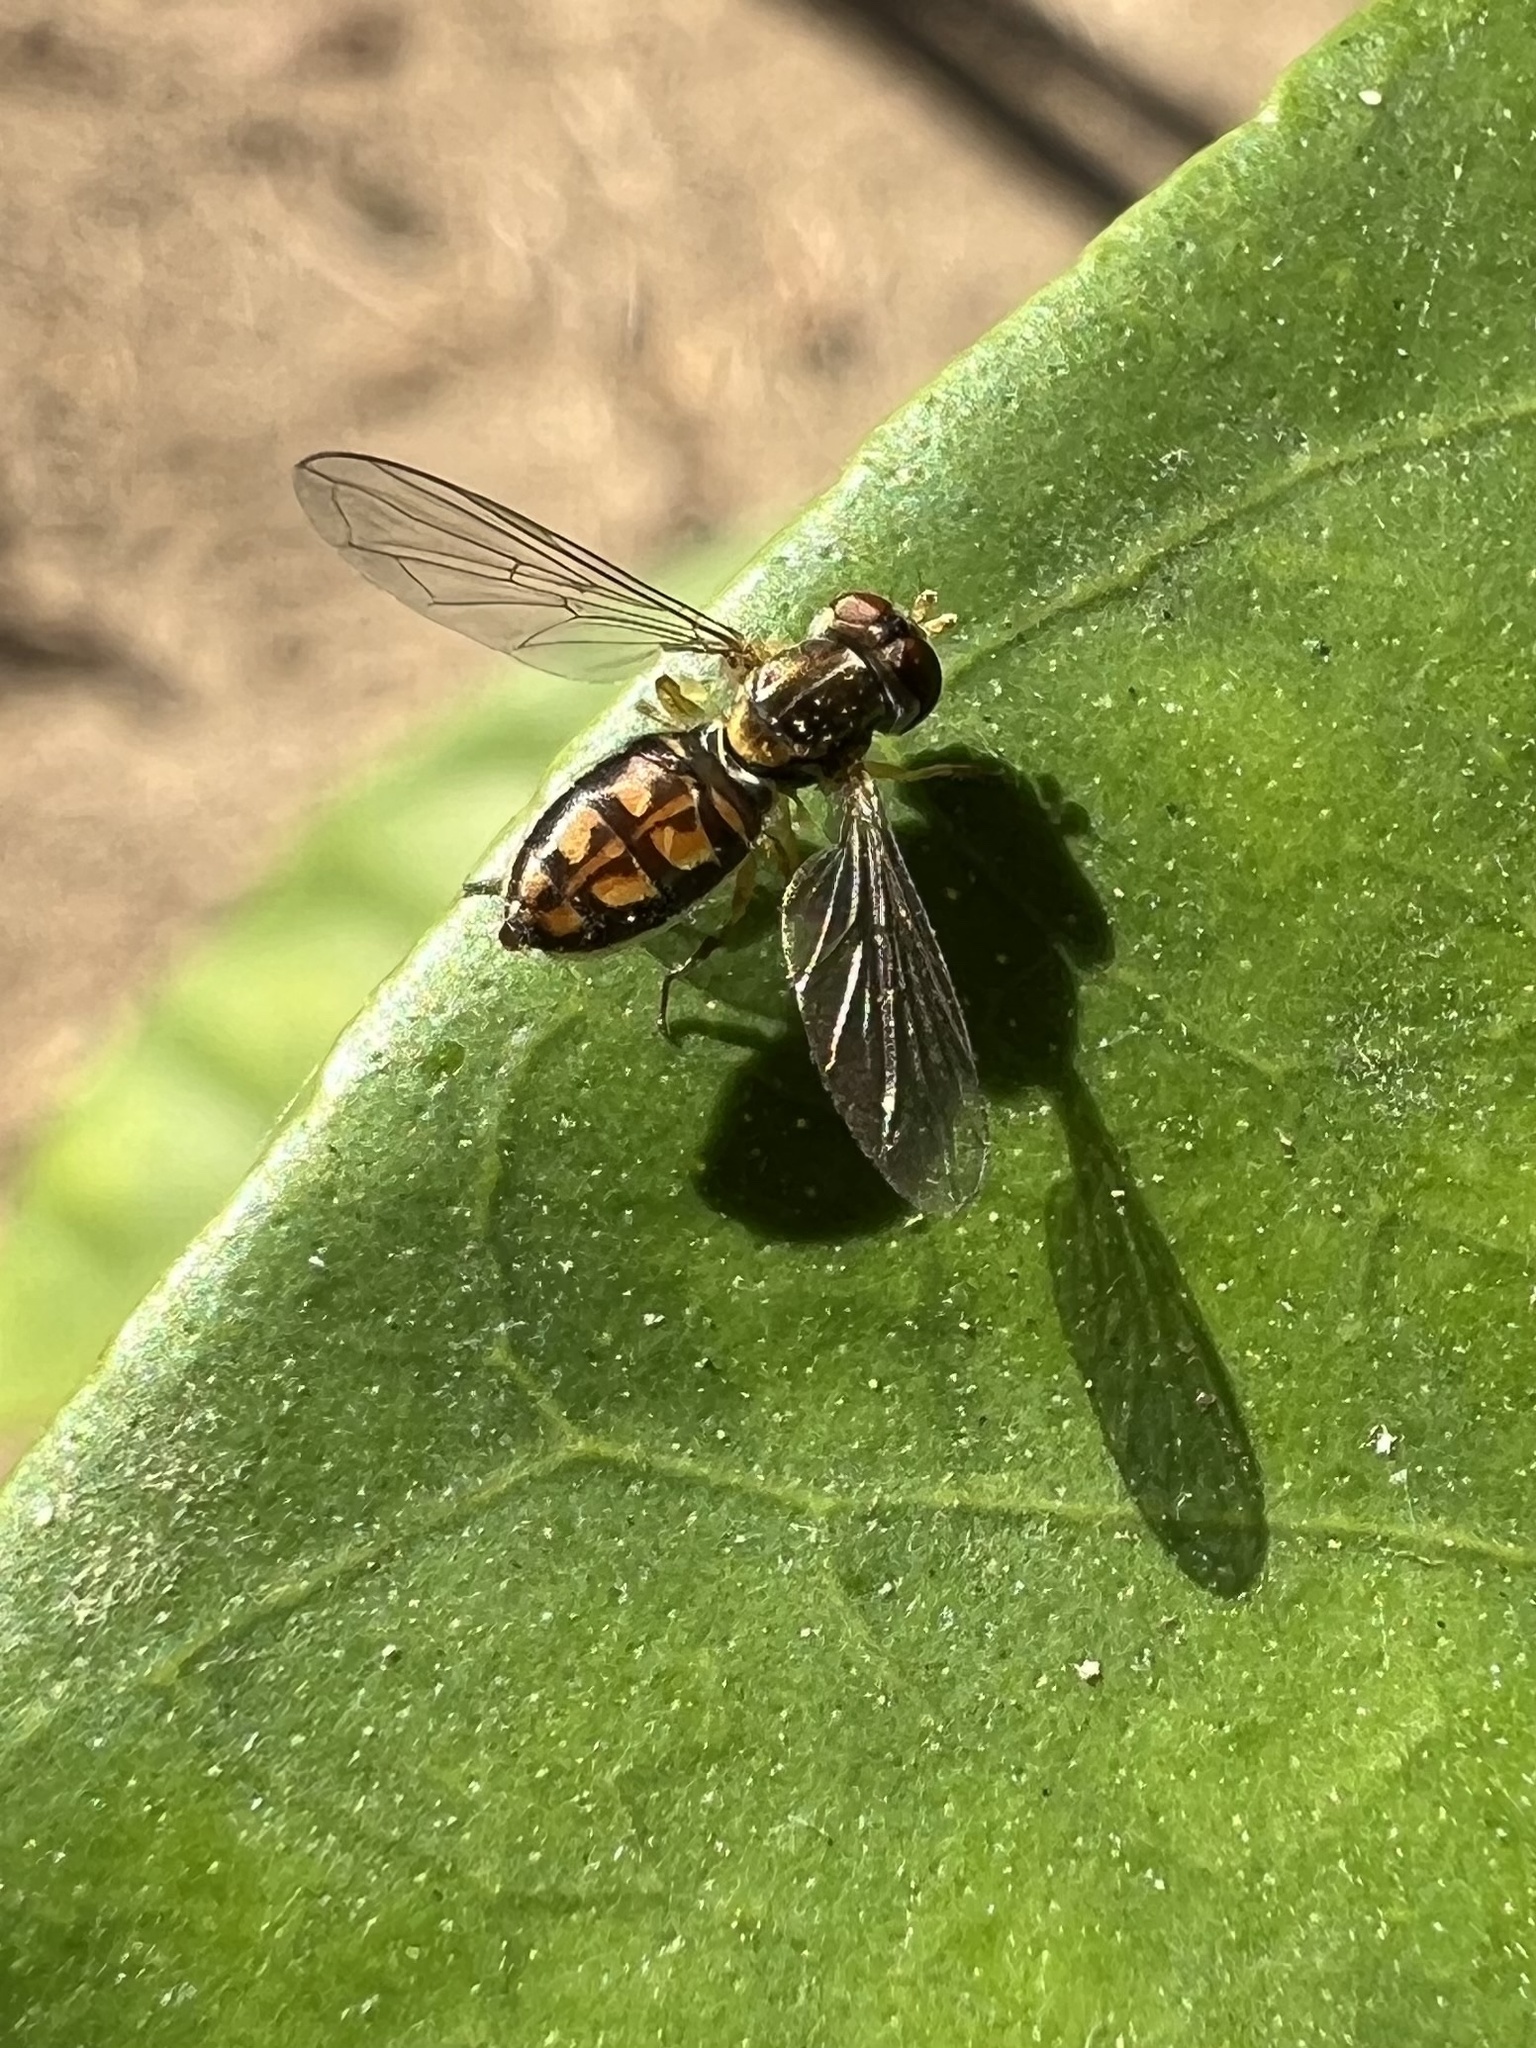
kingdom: Animalia
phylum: Arthropoda
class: Insecta
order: Diptera
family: Syrphidae
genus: Toxomerus
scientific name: Toxomerus marginatus
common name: Syrphid fly
